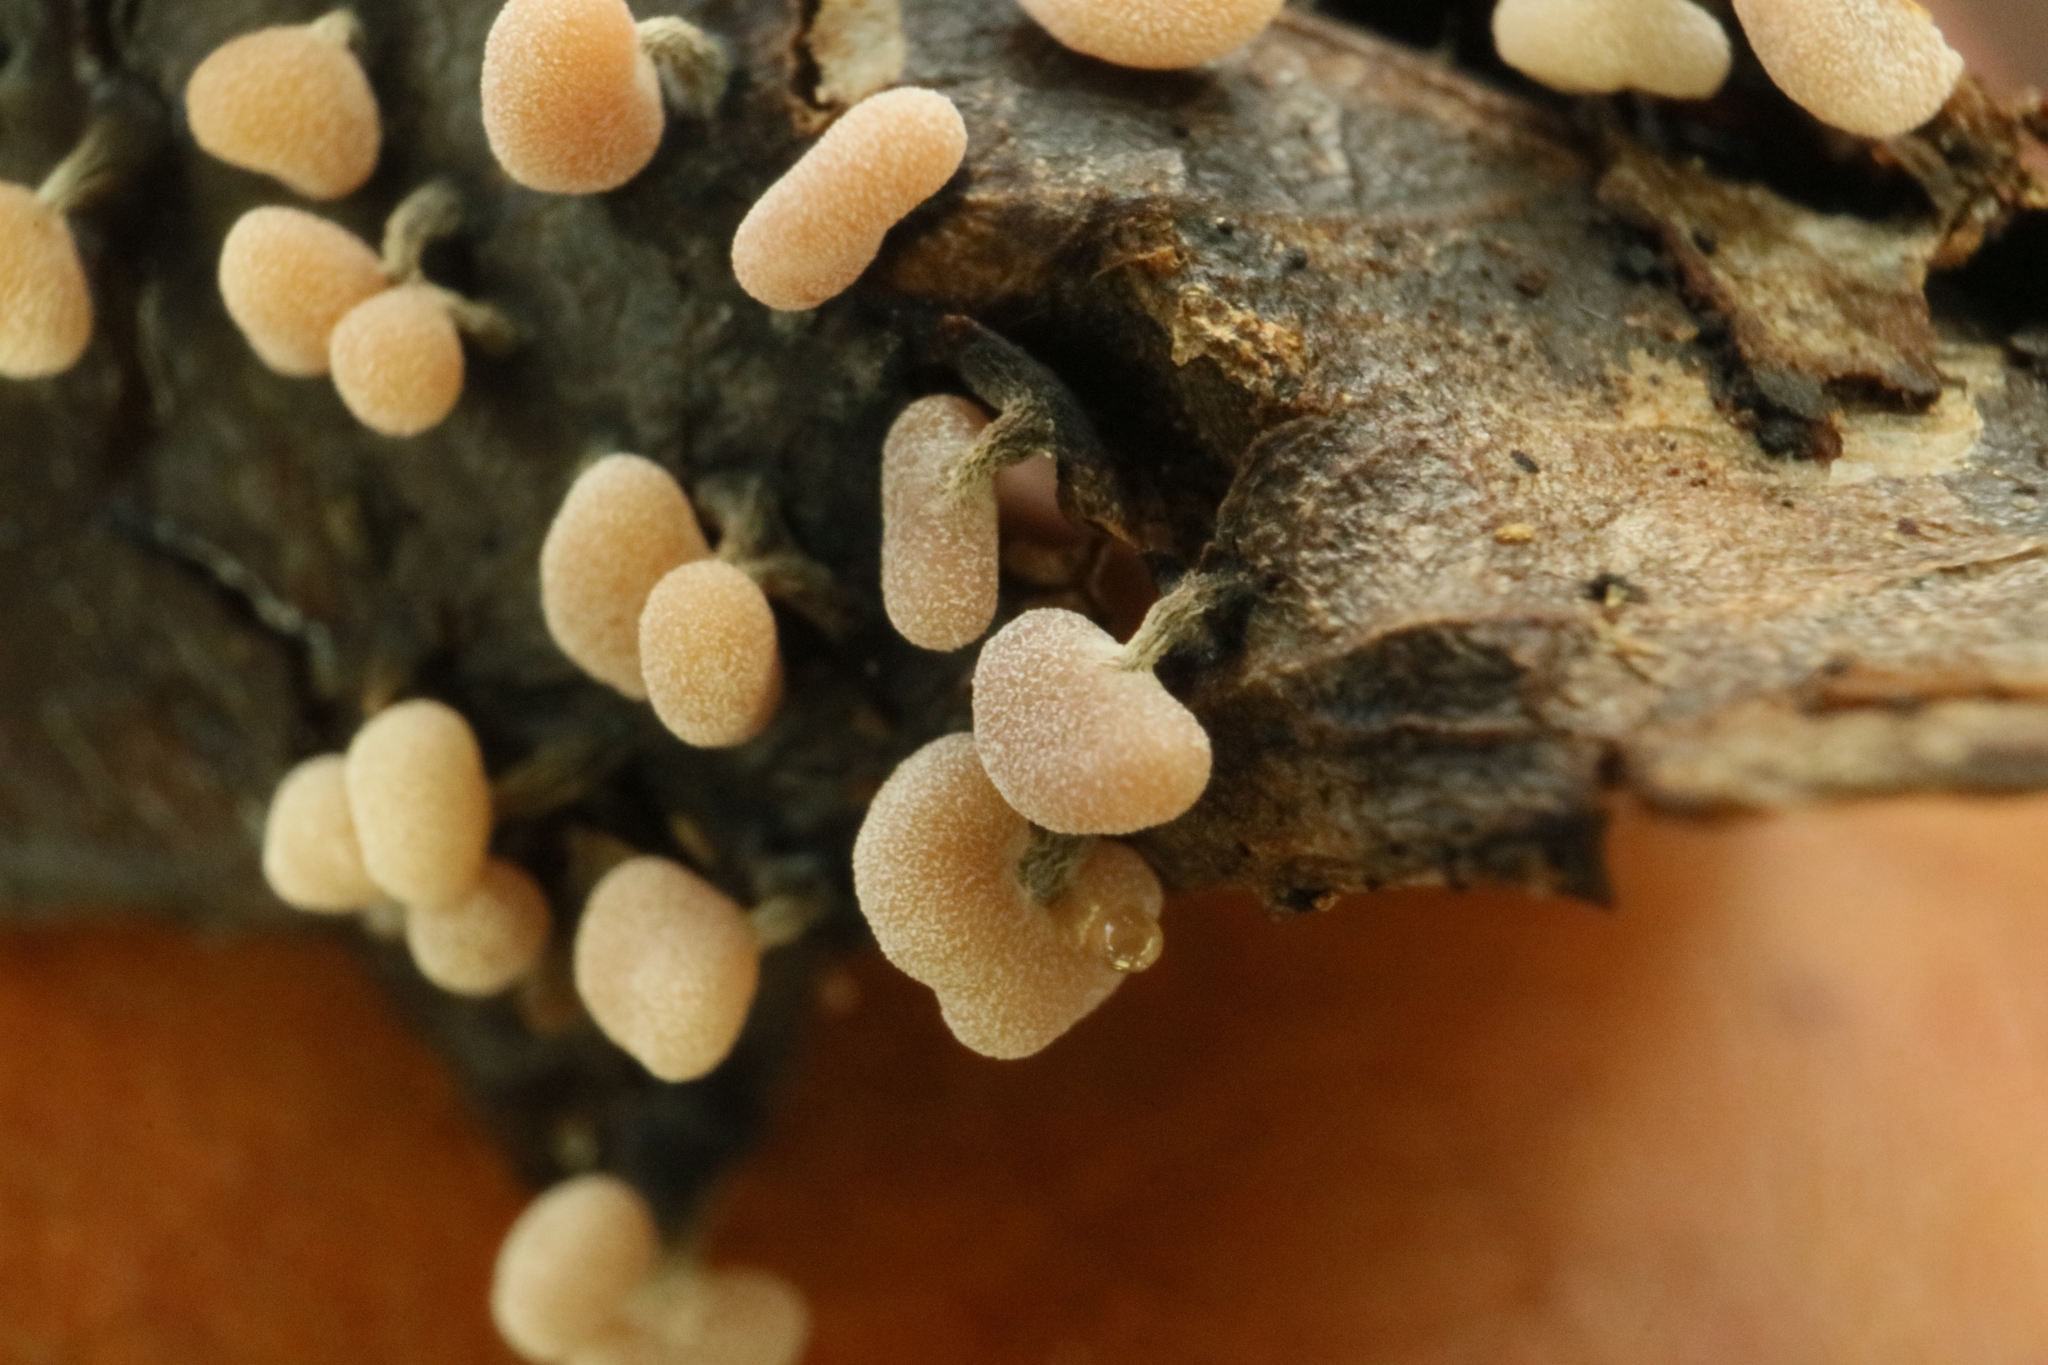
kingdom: Protozoa
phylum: Mycetozoa
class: Myxomycetes
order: Physarales
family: Physaraceae
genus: Physarum
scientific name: Physarum compressum
